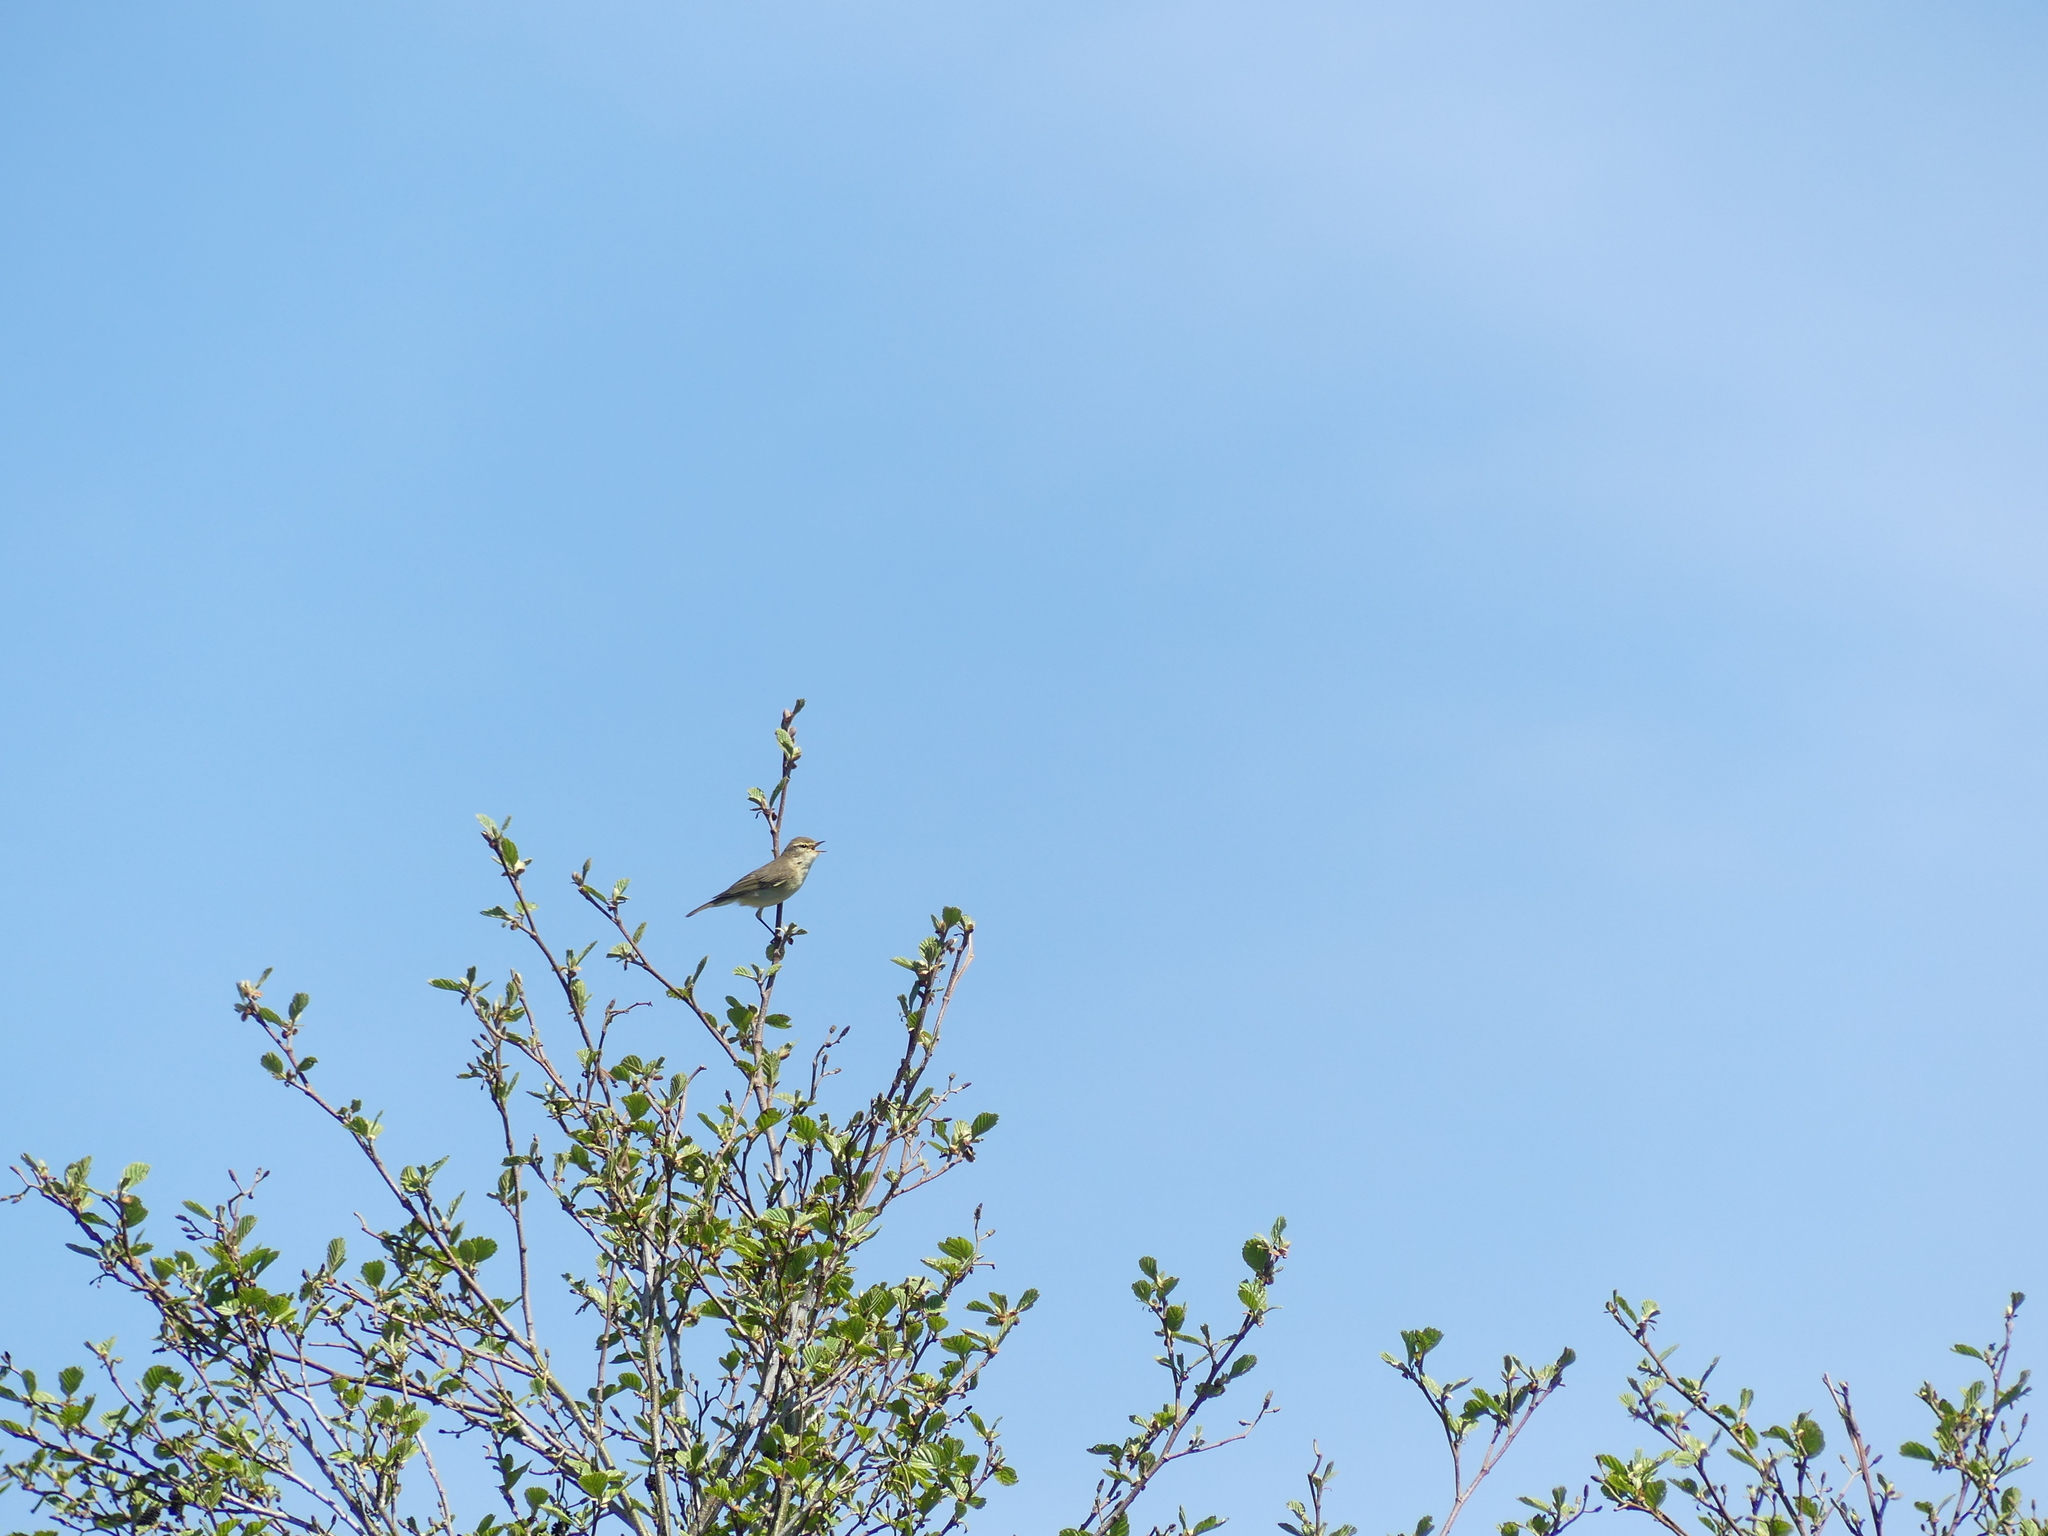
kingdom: Animalia
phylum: Chordata
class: Aves
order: Passeriformes
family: Phylloscopidae
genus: Phylloscopus
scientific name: Phylloscopus collybita
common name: Common chiffchaff
